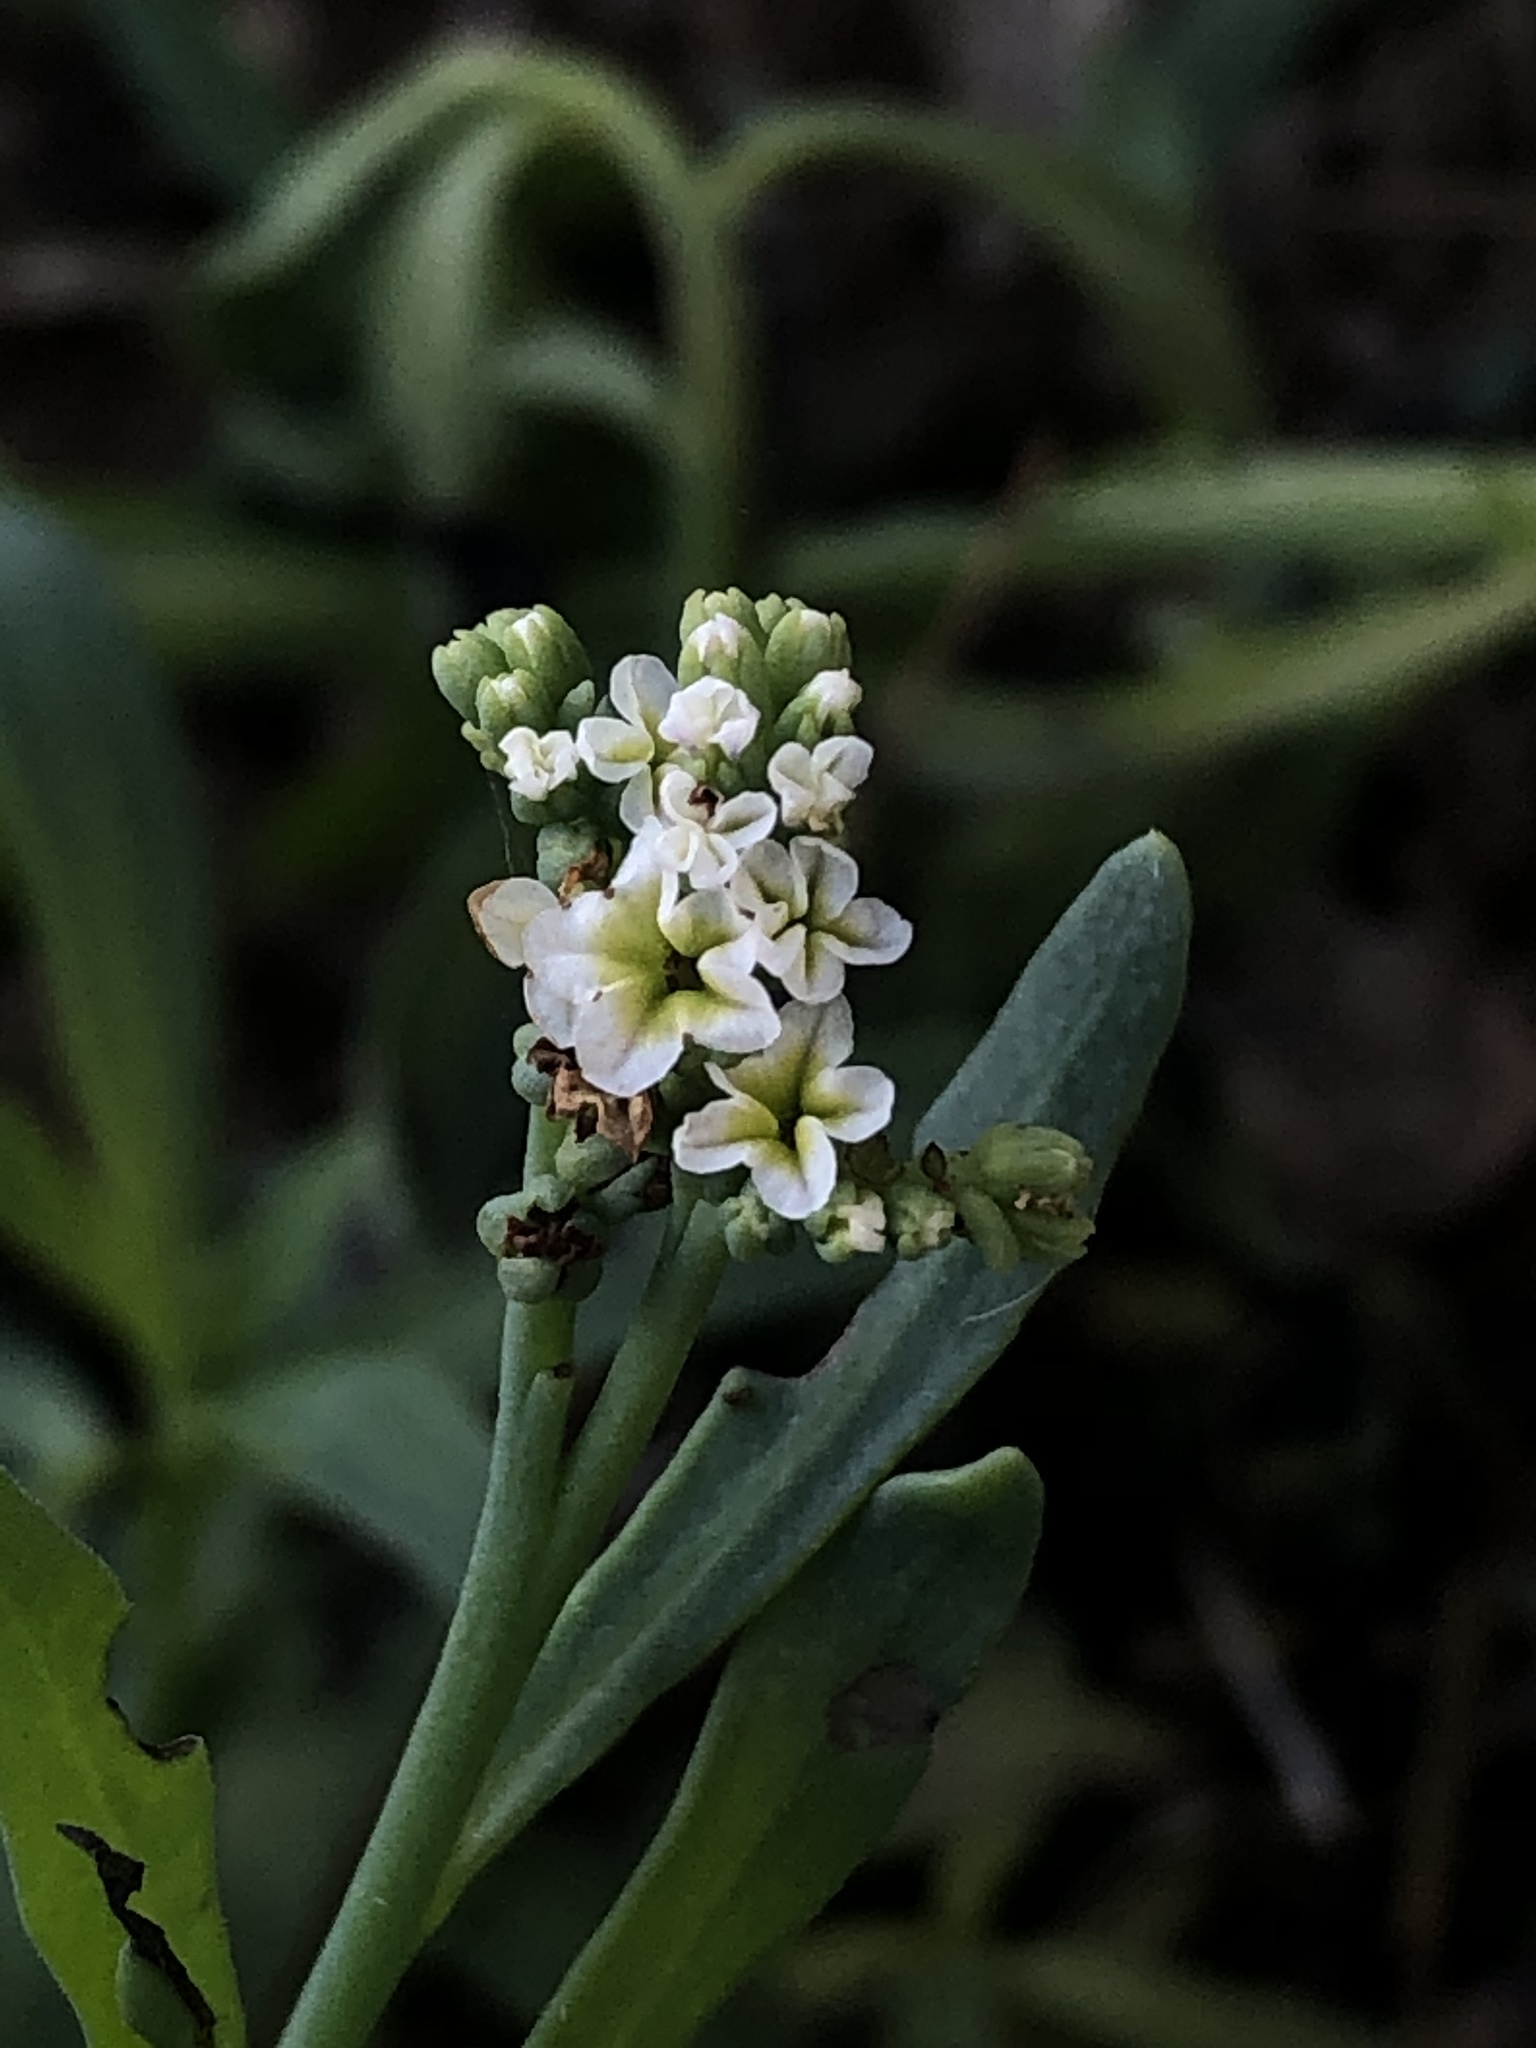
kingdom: Plantae
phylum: Tracheophyta
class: Magnoliopsida
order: Boraginales
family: Heliotropiaceae
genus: Heliotropium
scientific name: Heliotropium curassavicum
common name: Seaside heliotrope
